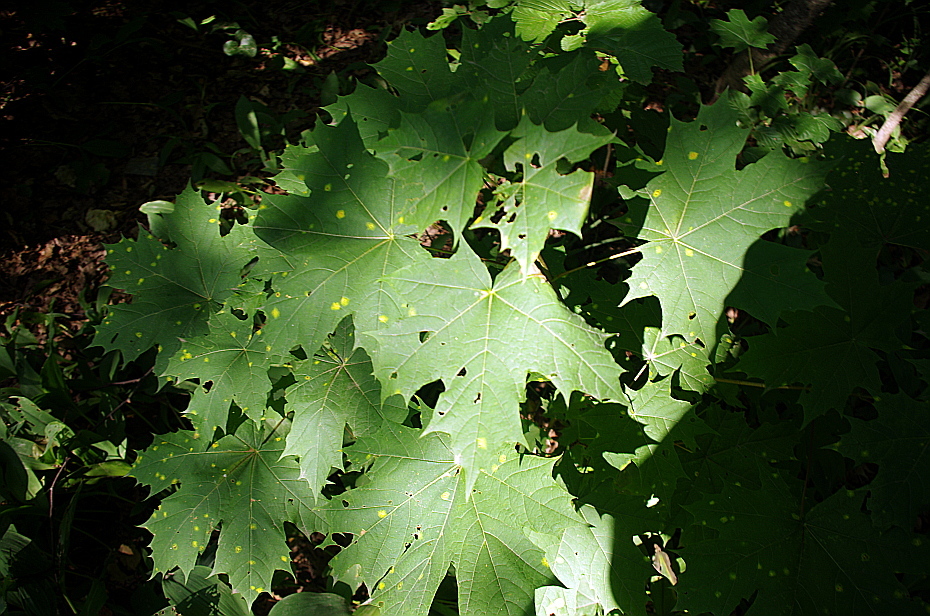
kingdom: Plantae
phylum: Tracheophyta
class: Magnoliopsida
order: Sapindales
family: Sapindaceae
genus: Acer
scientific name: Acer platanoides
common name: Norway maple
